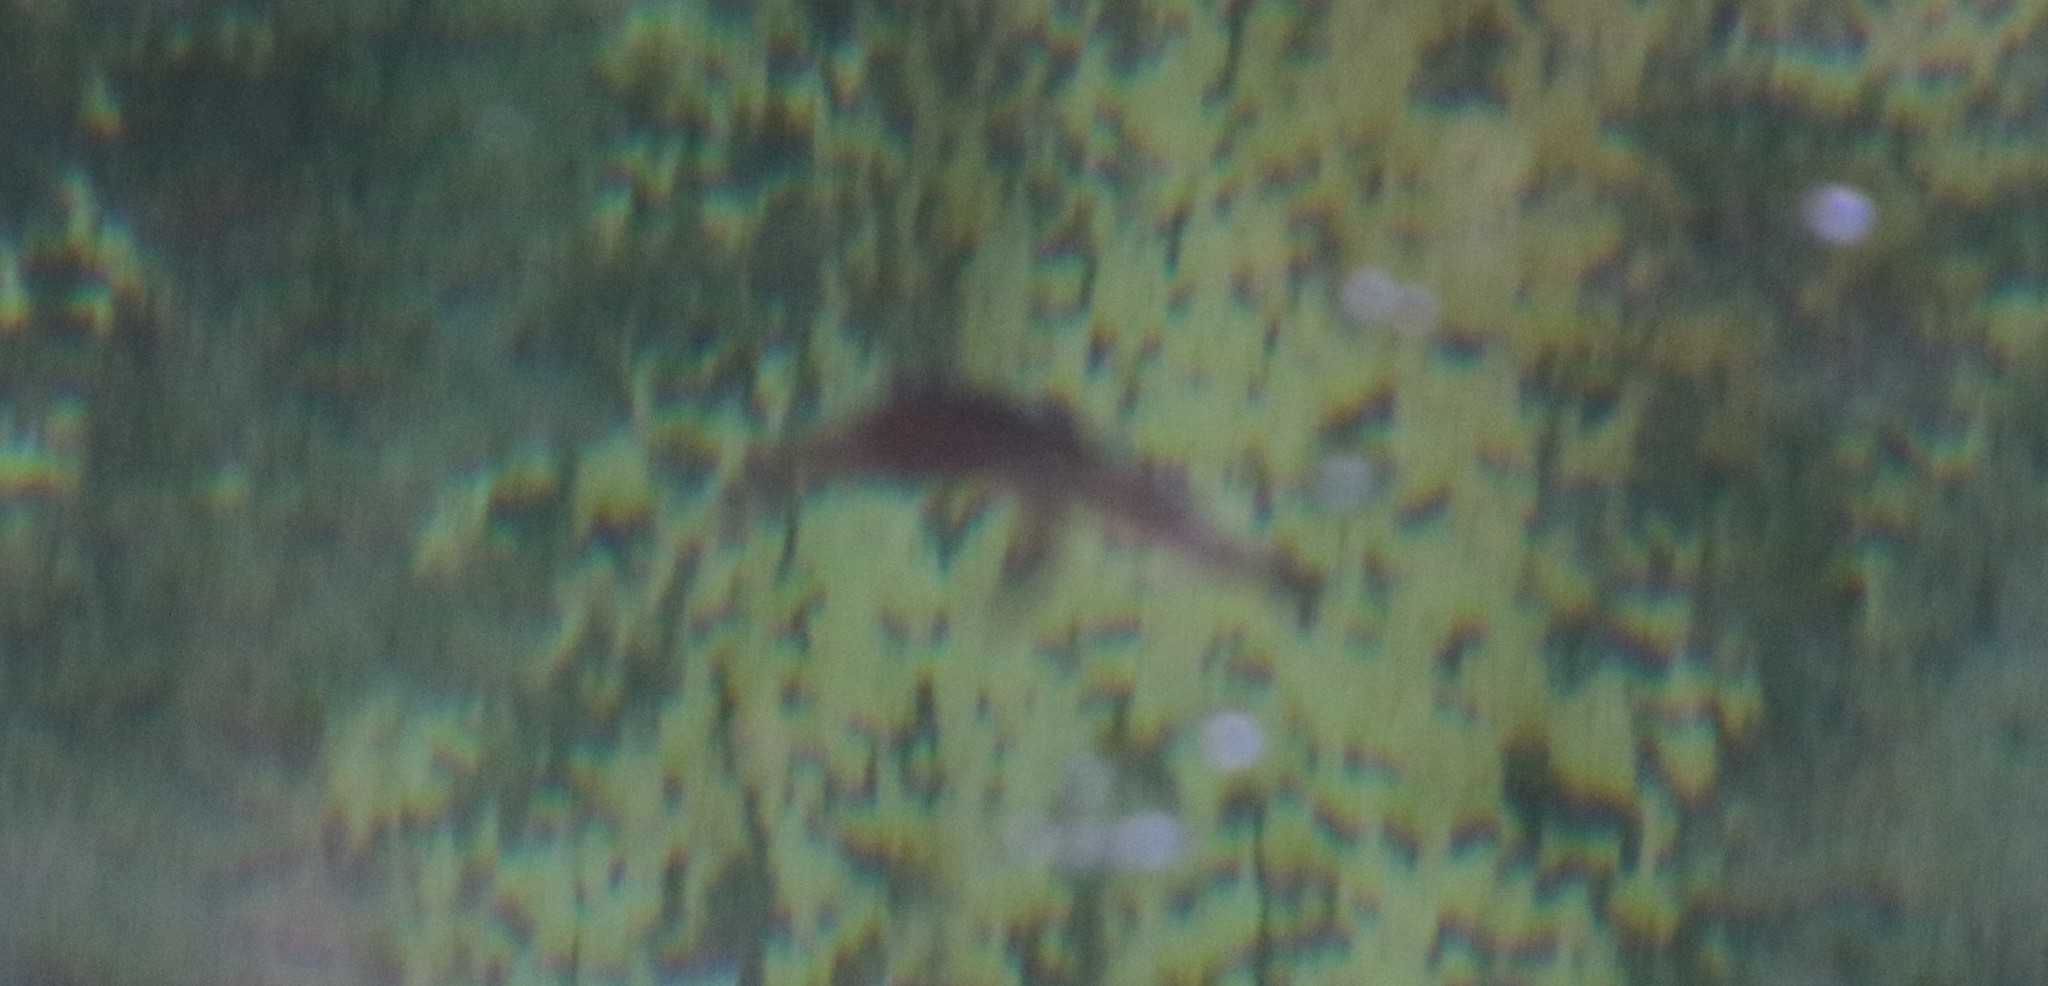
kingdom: Animalia
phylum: Chordata
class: Amphibia
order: Anura
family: Pipidae
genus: Xenopus
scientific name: Xenopus laevis
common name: African clawed frog
